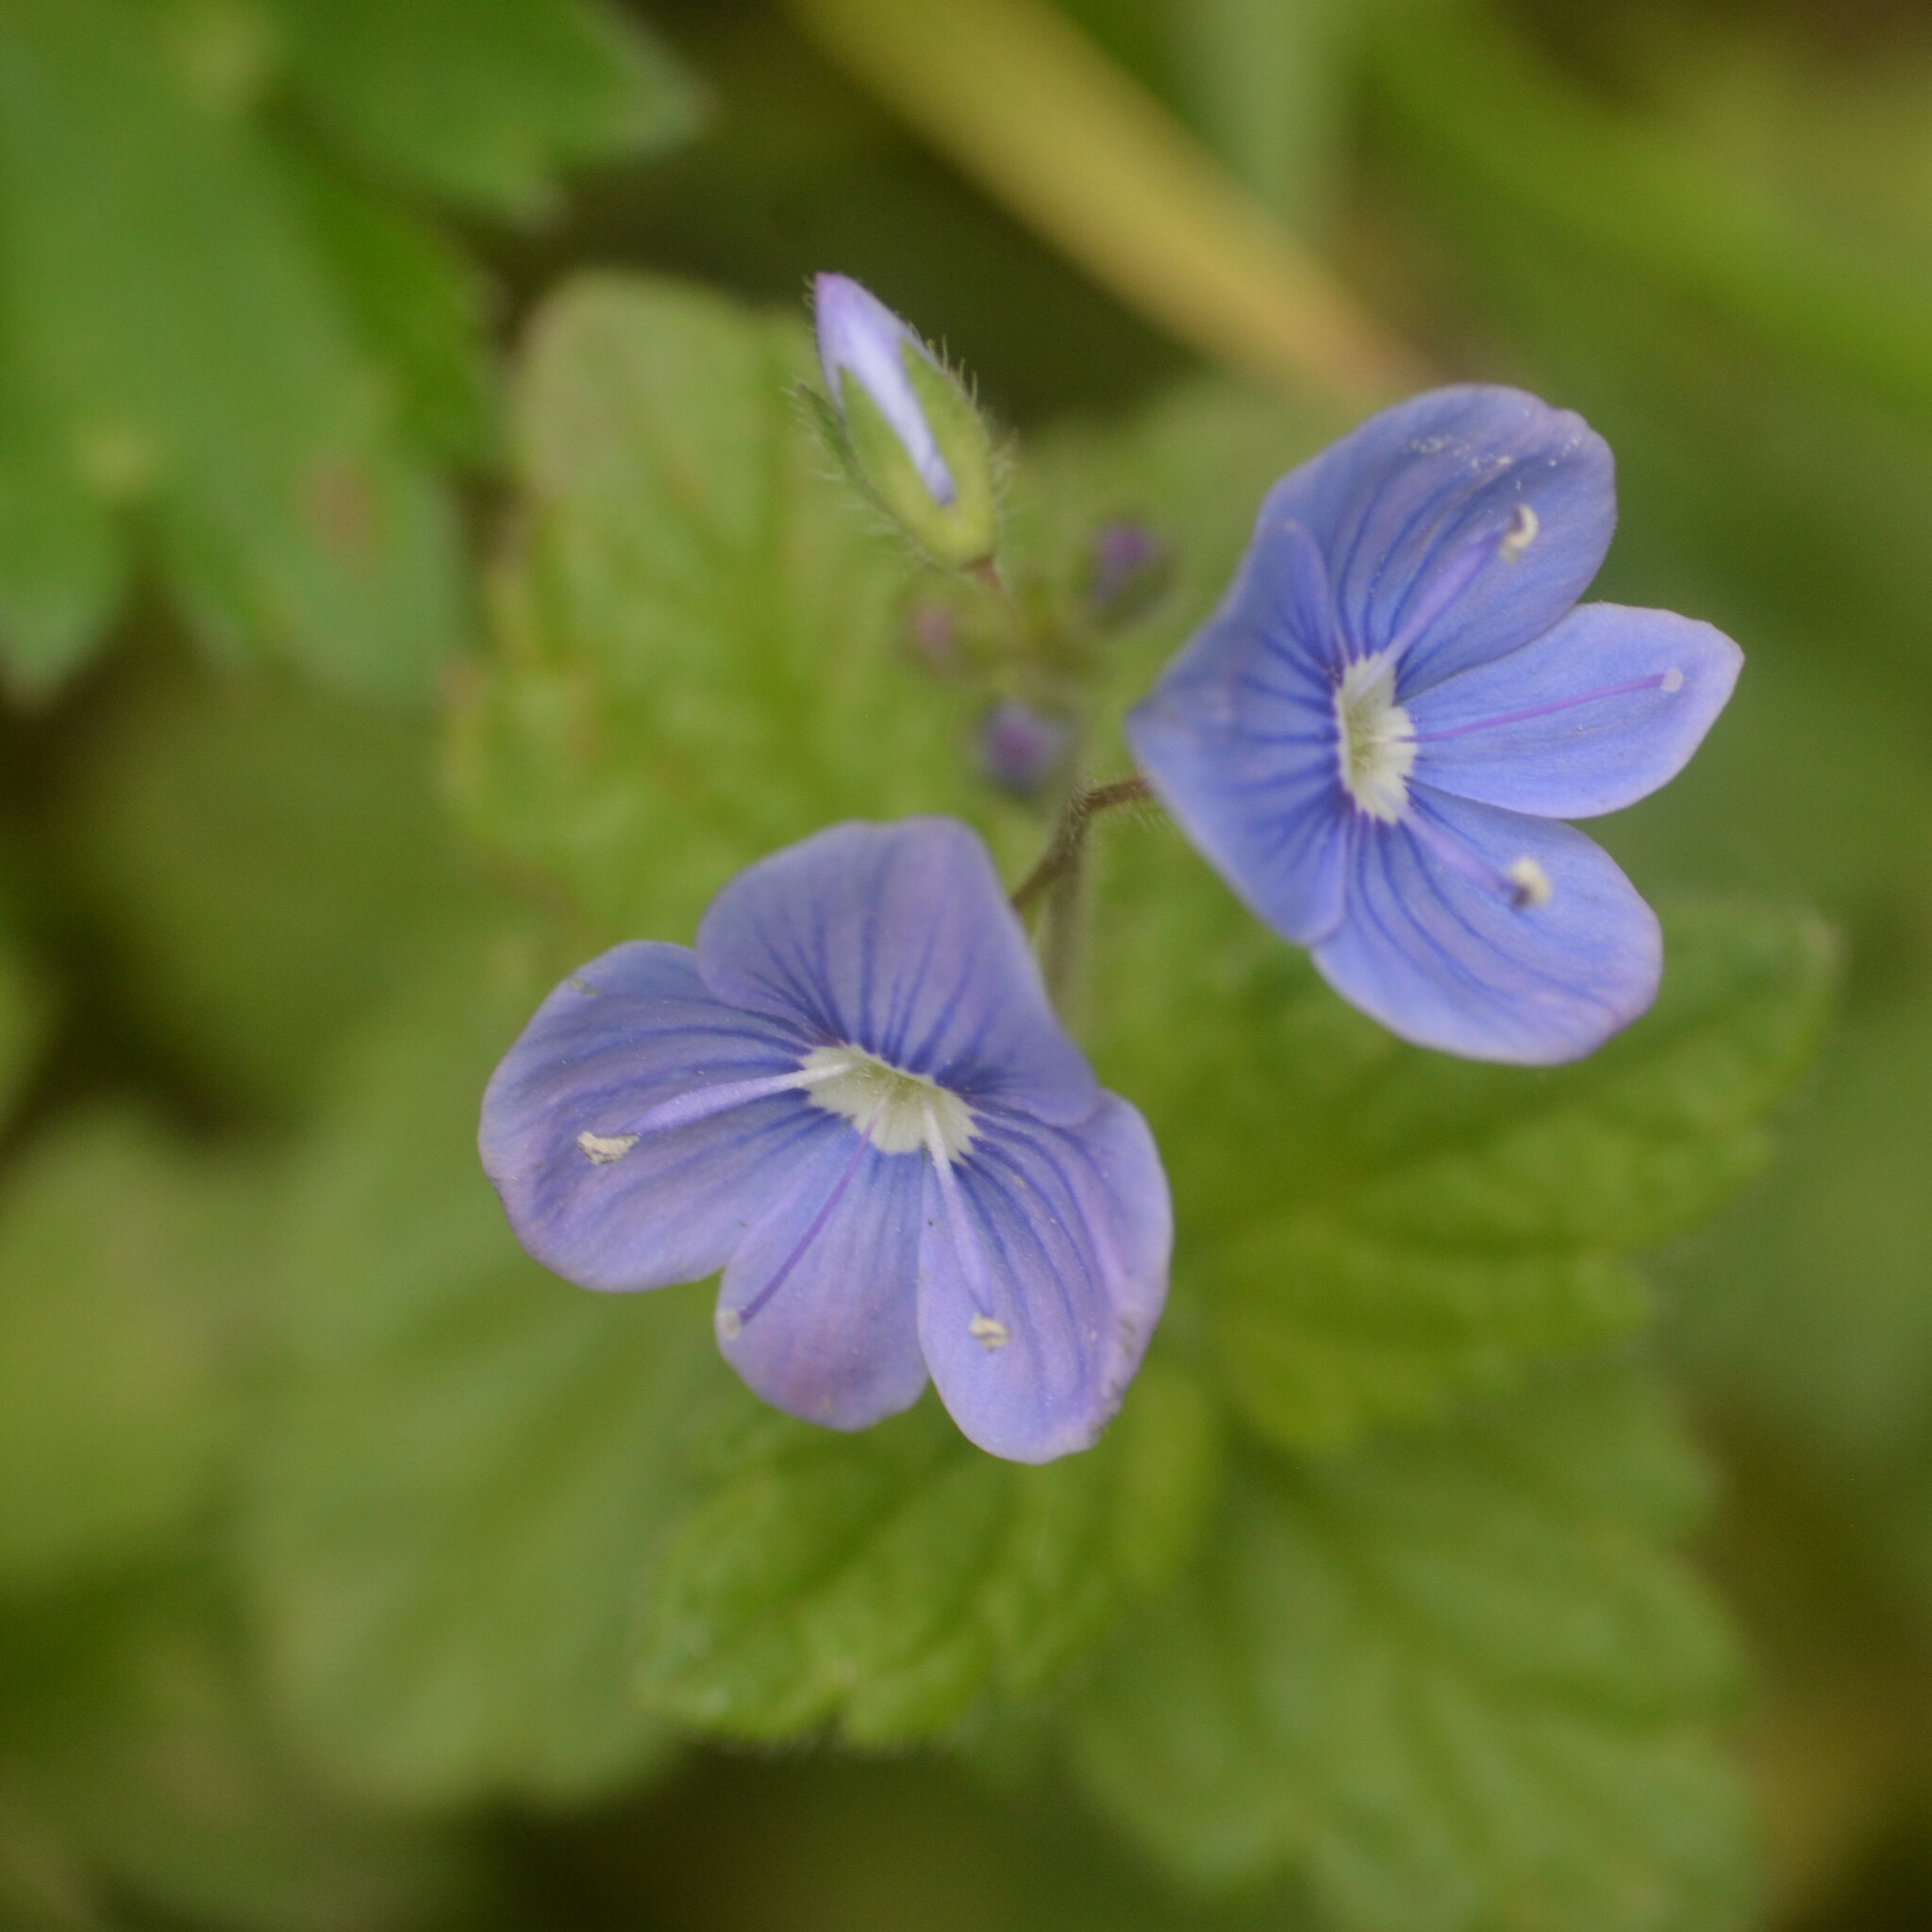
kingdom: Plantae
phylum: Tracheophyta
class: Magnoliopsida
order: Lamiales
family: Plantaginaceae
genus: Veronica
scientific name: Veronica chamaedrys
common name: Germander speedwell
